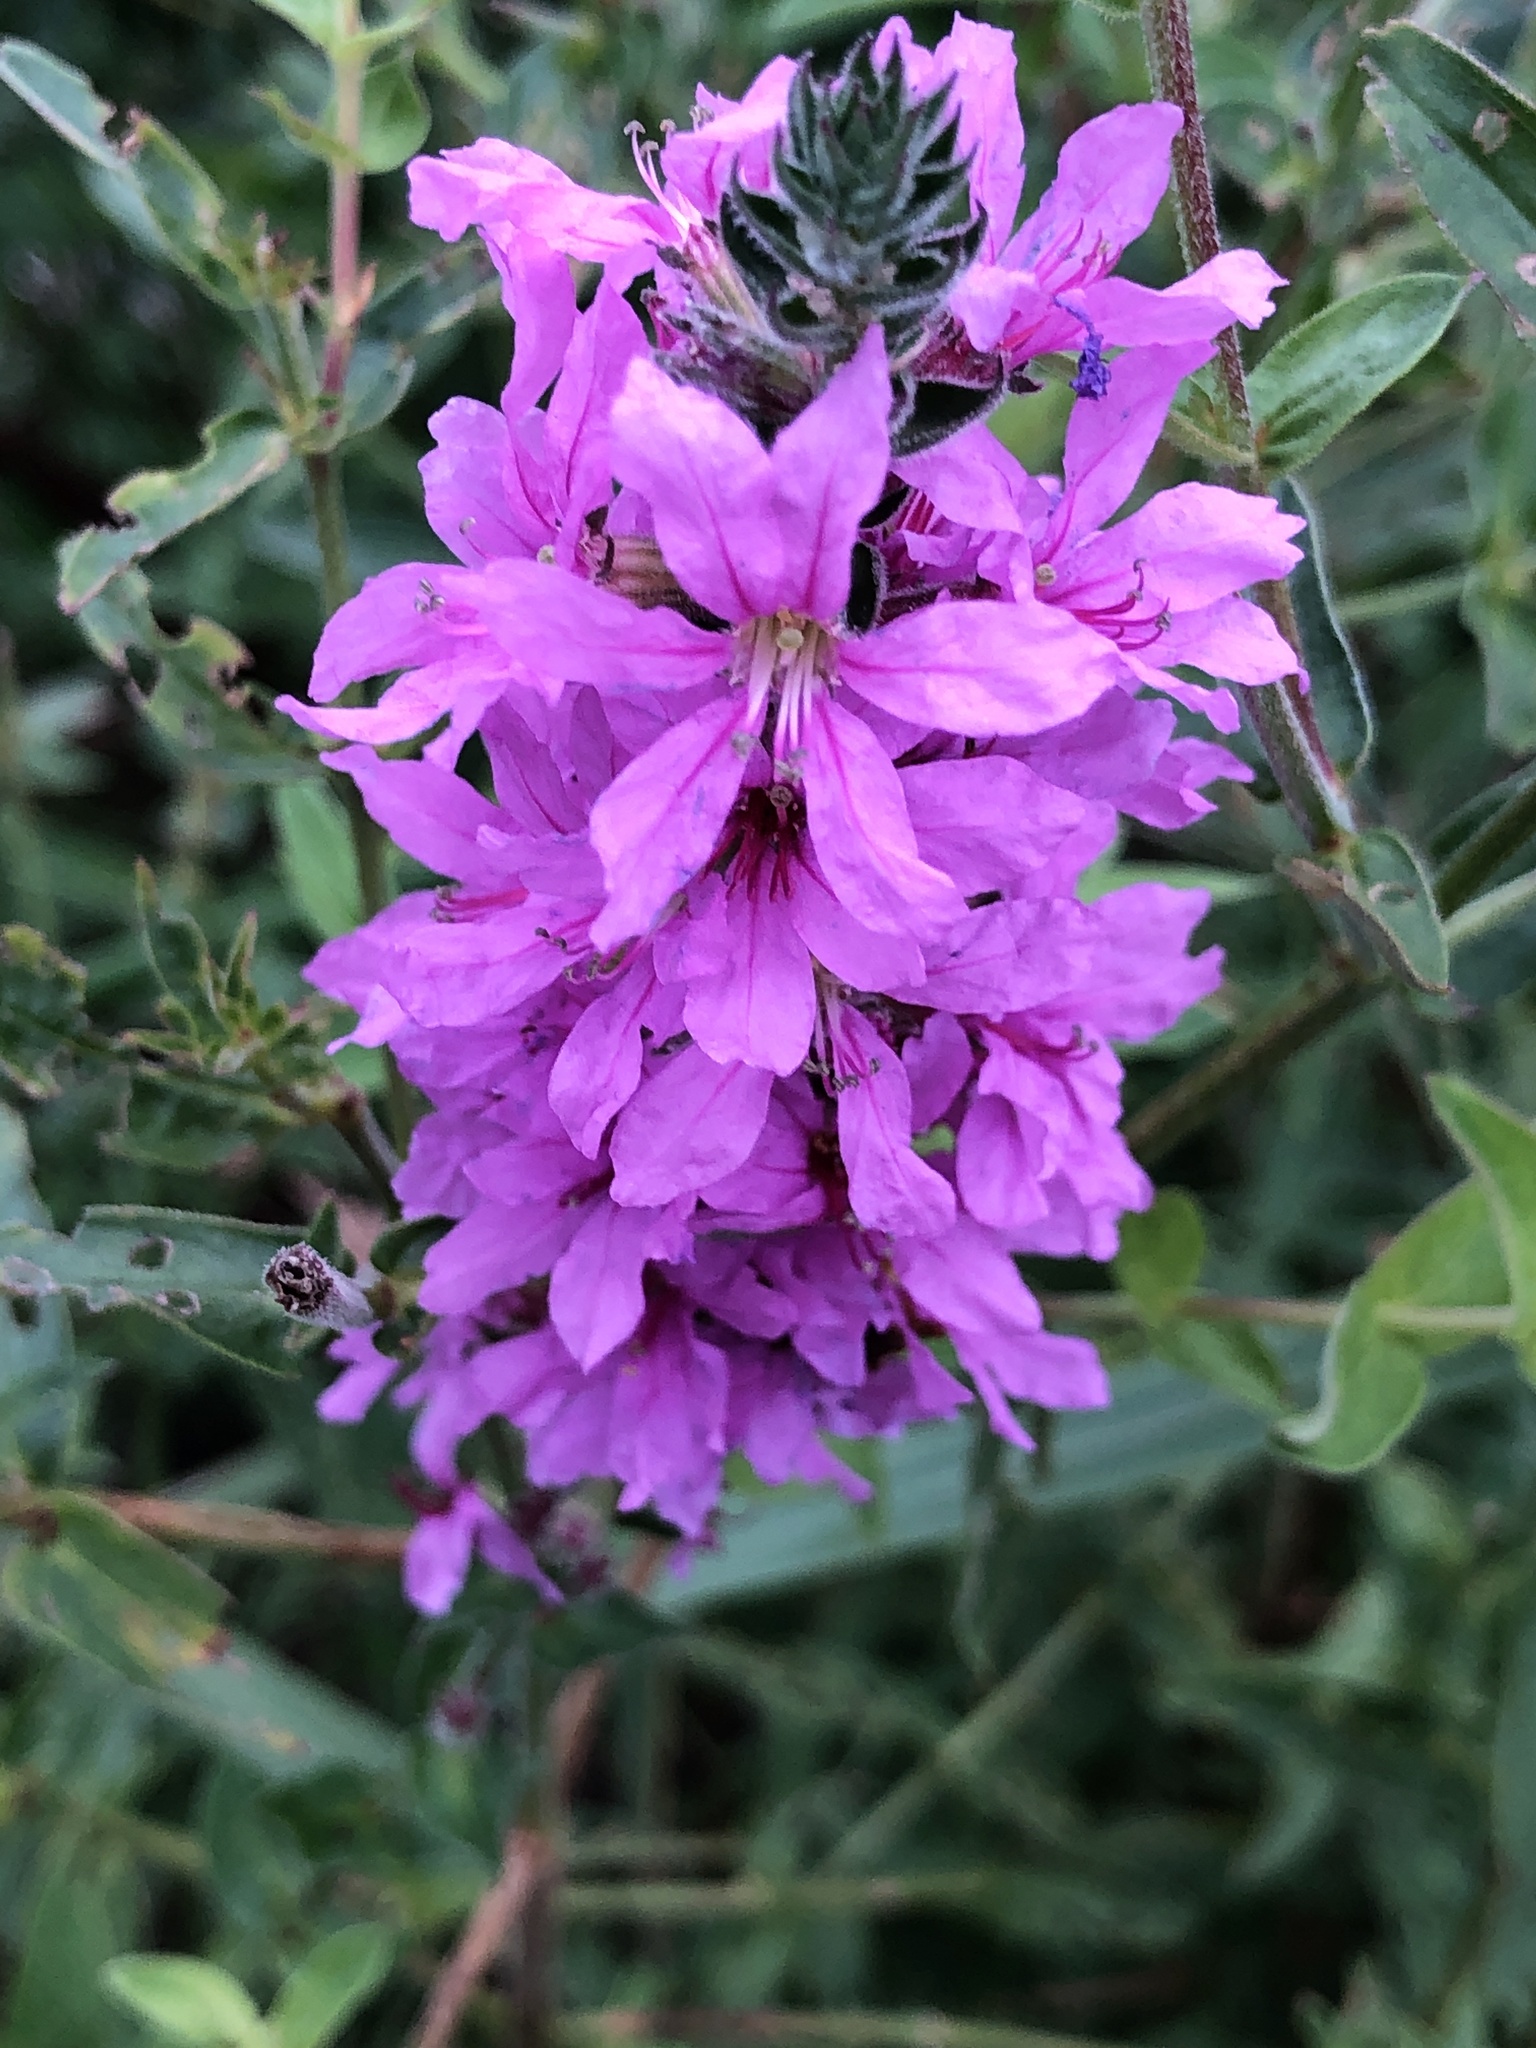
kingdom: Plantae
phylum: Tracheophyta
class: Magnoliopsida
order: Myrtales
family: Lythraceae
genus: Lythrum
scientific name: Lythrum salicaria
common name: Purple loosestrife
